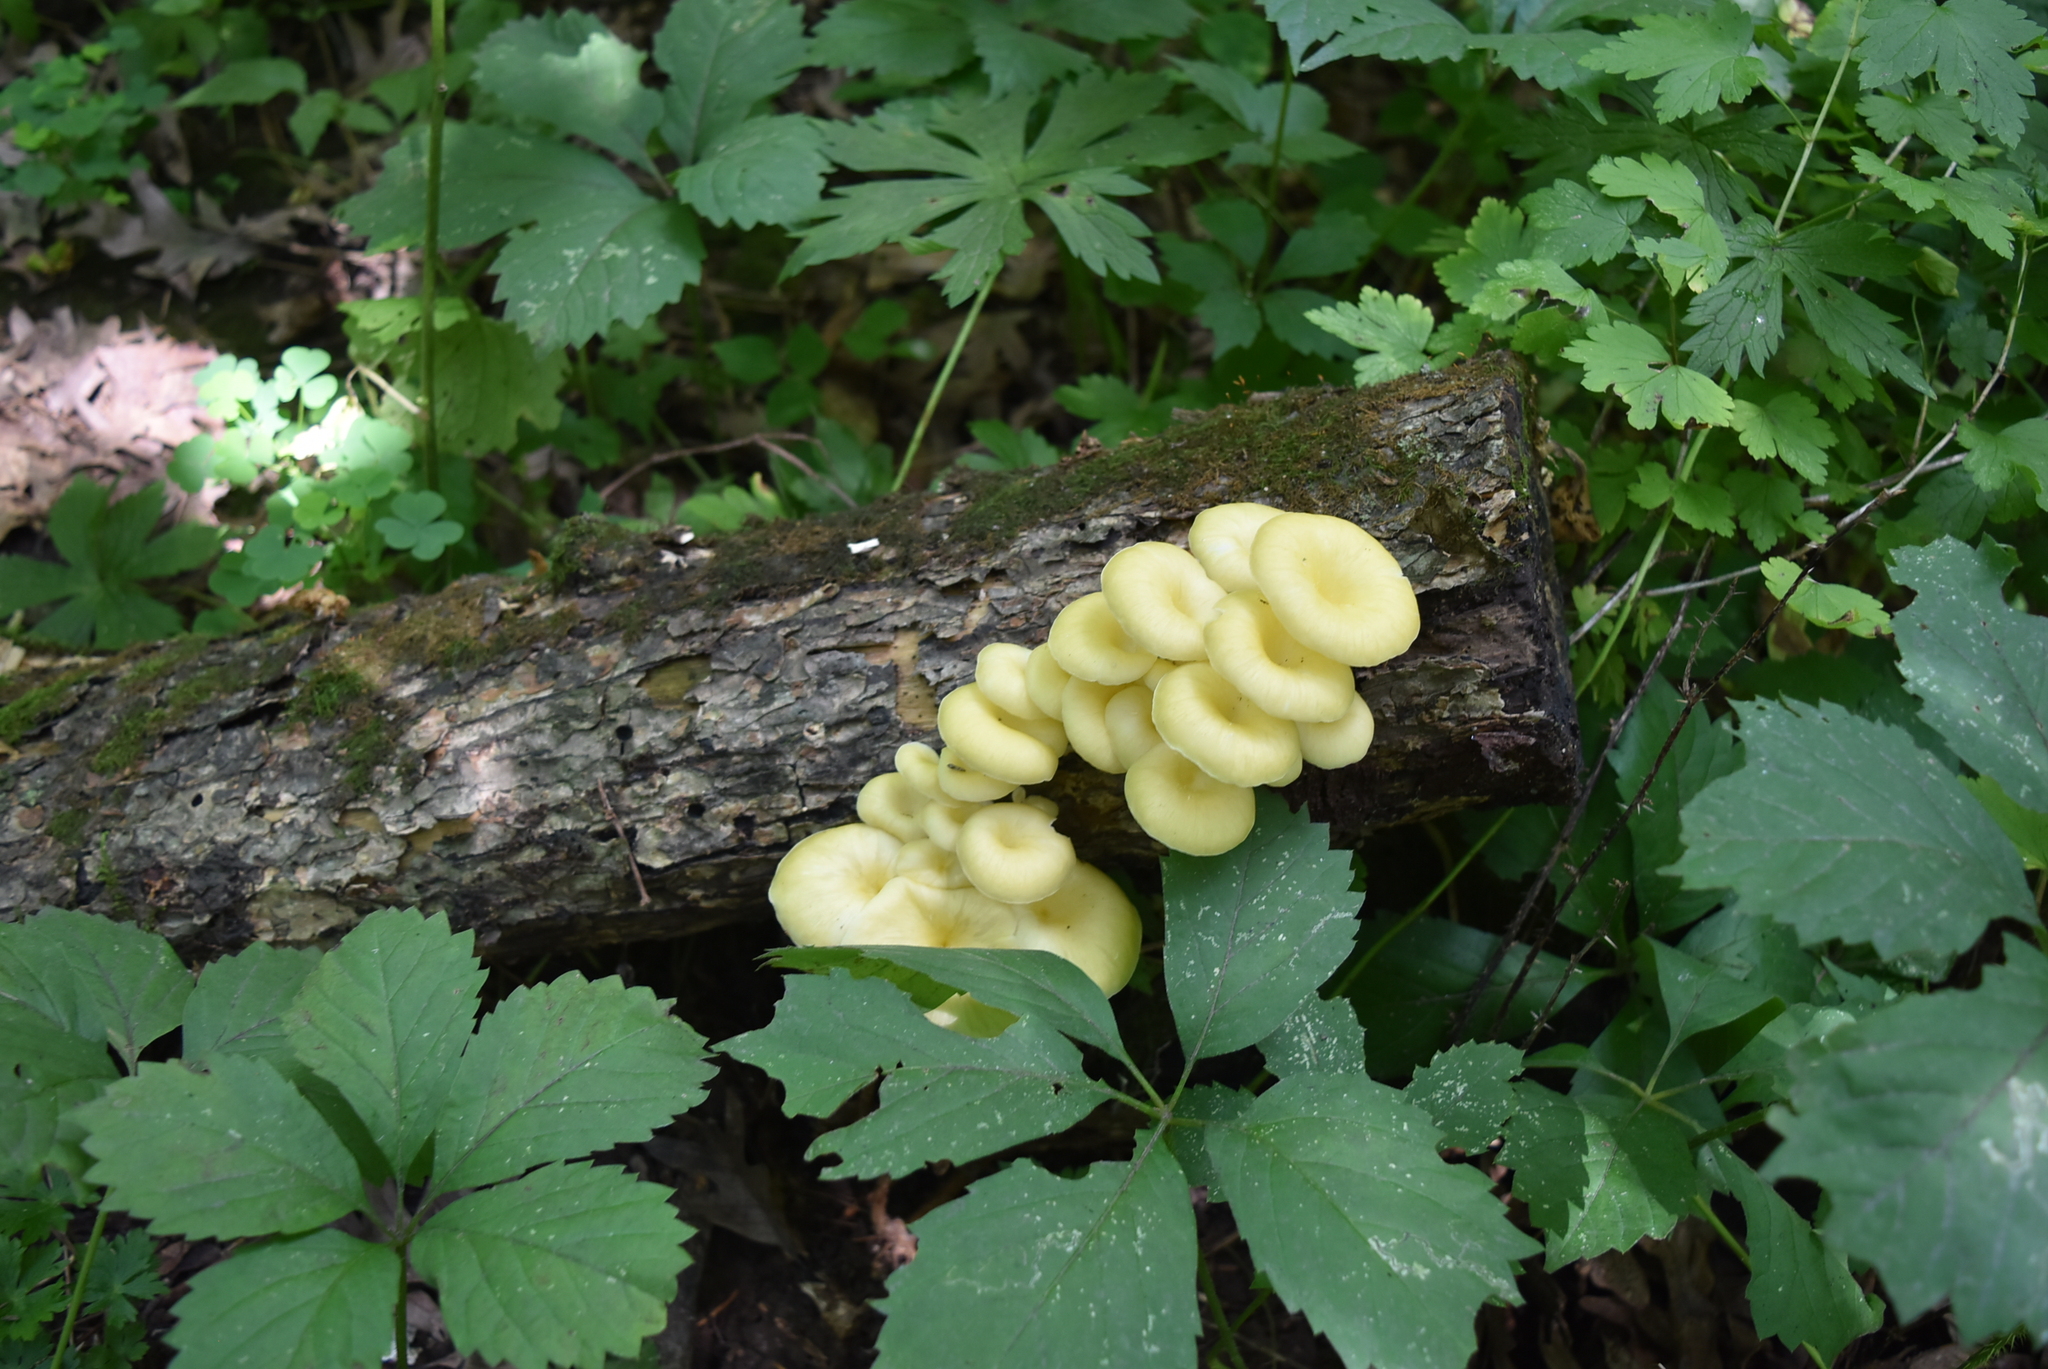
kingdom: Fungi
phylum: Basidiomycota
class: Agaricomycetes
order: Agaricales
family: Pleurotaceae
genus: Pleurotus
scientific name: Pleurotus citrinopileatus
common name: Golden oyster mushroom
